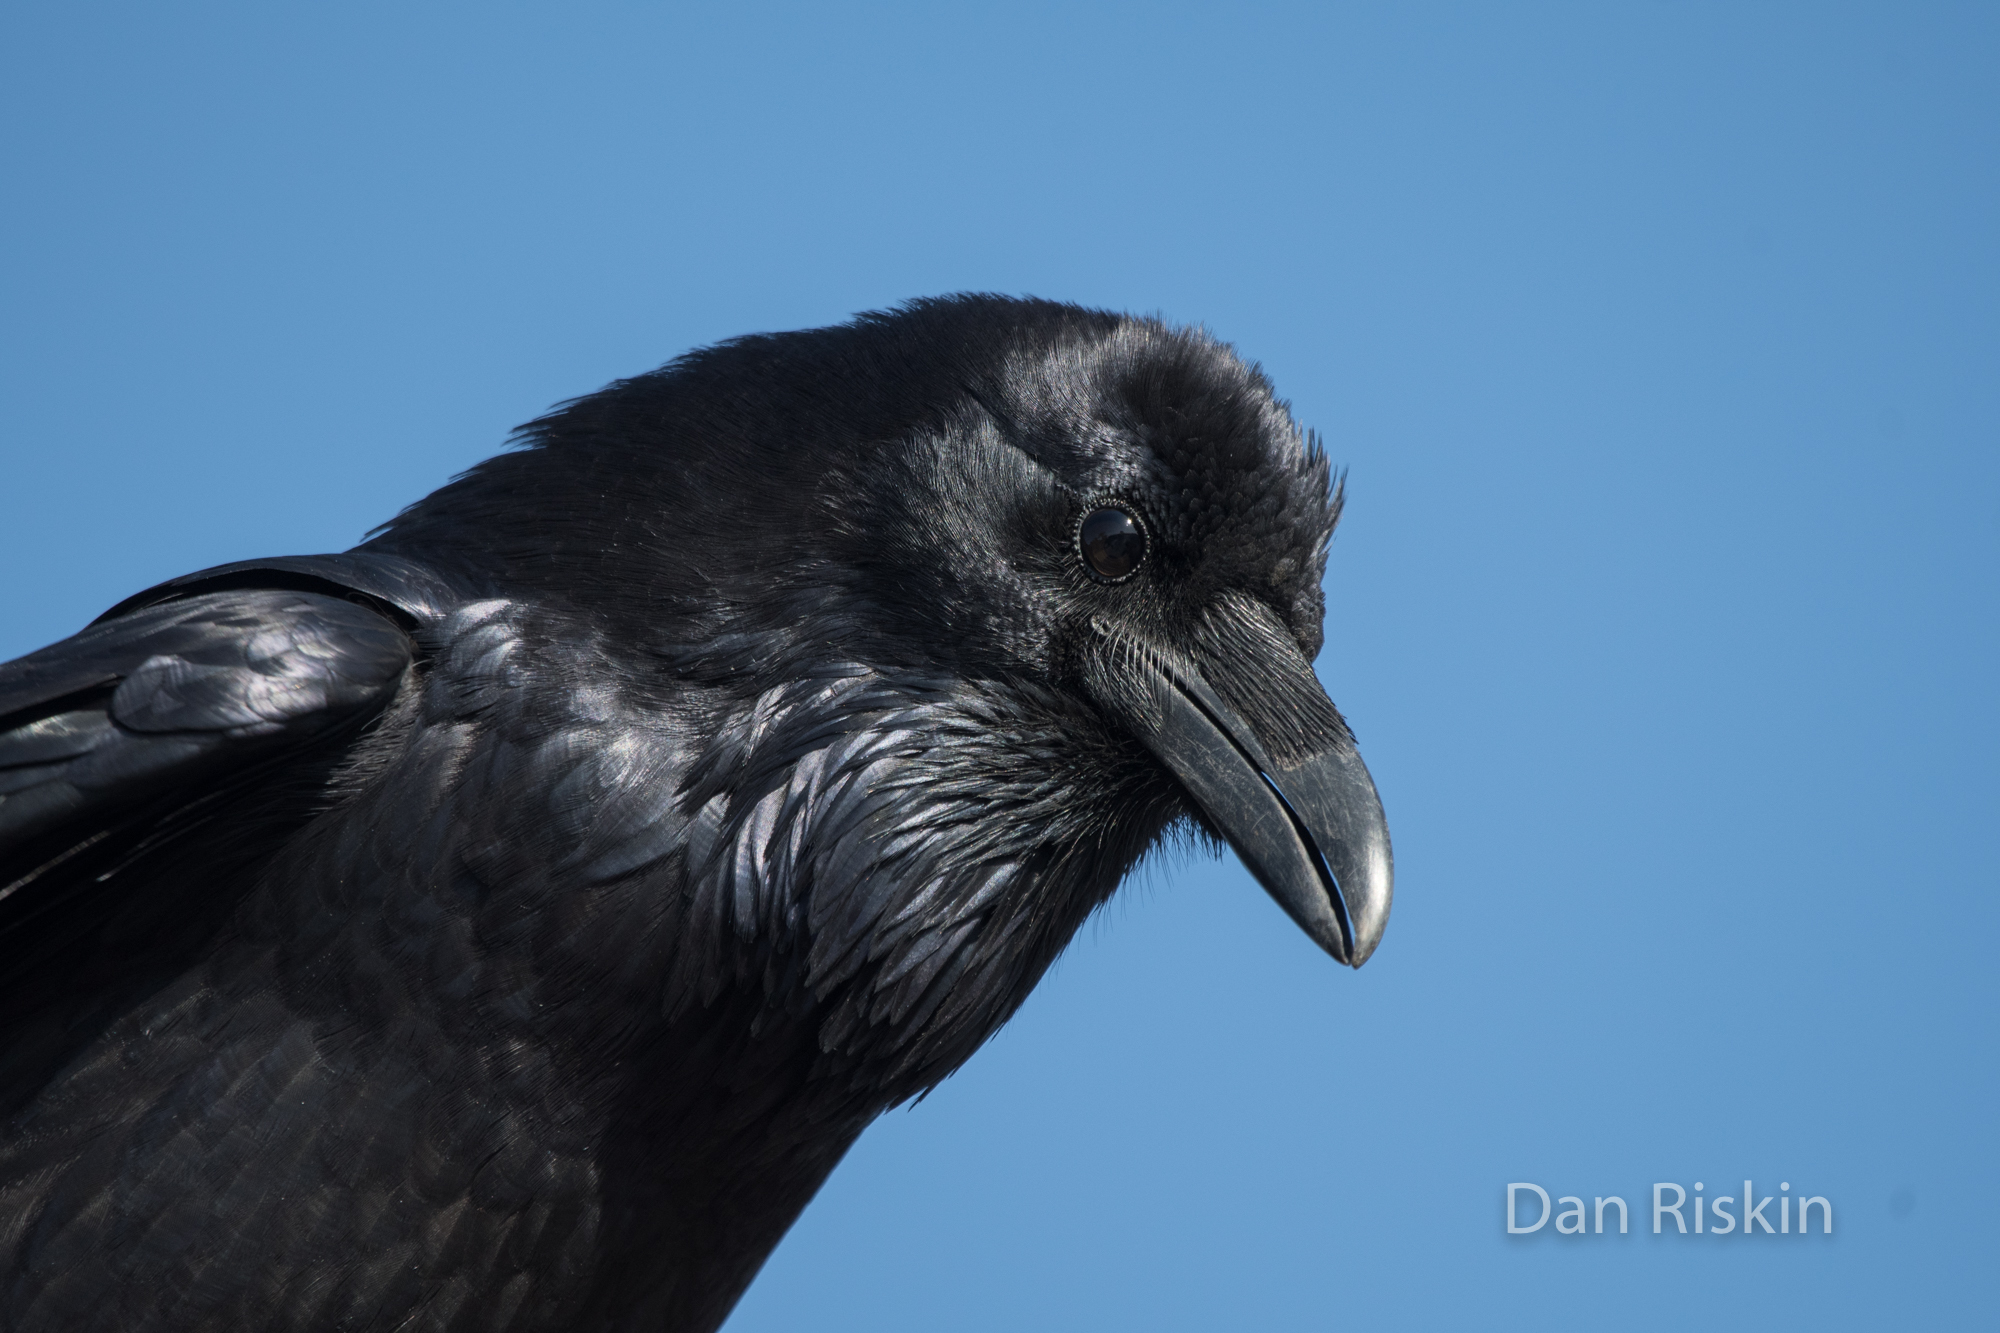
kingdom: Animalia
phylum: Chordata
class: Aves
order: Passeriformes
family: Corvidae
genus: Corvus
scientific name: Corvus corax
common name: Common raven
